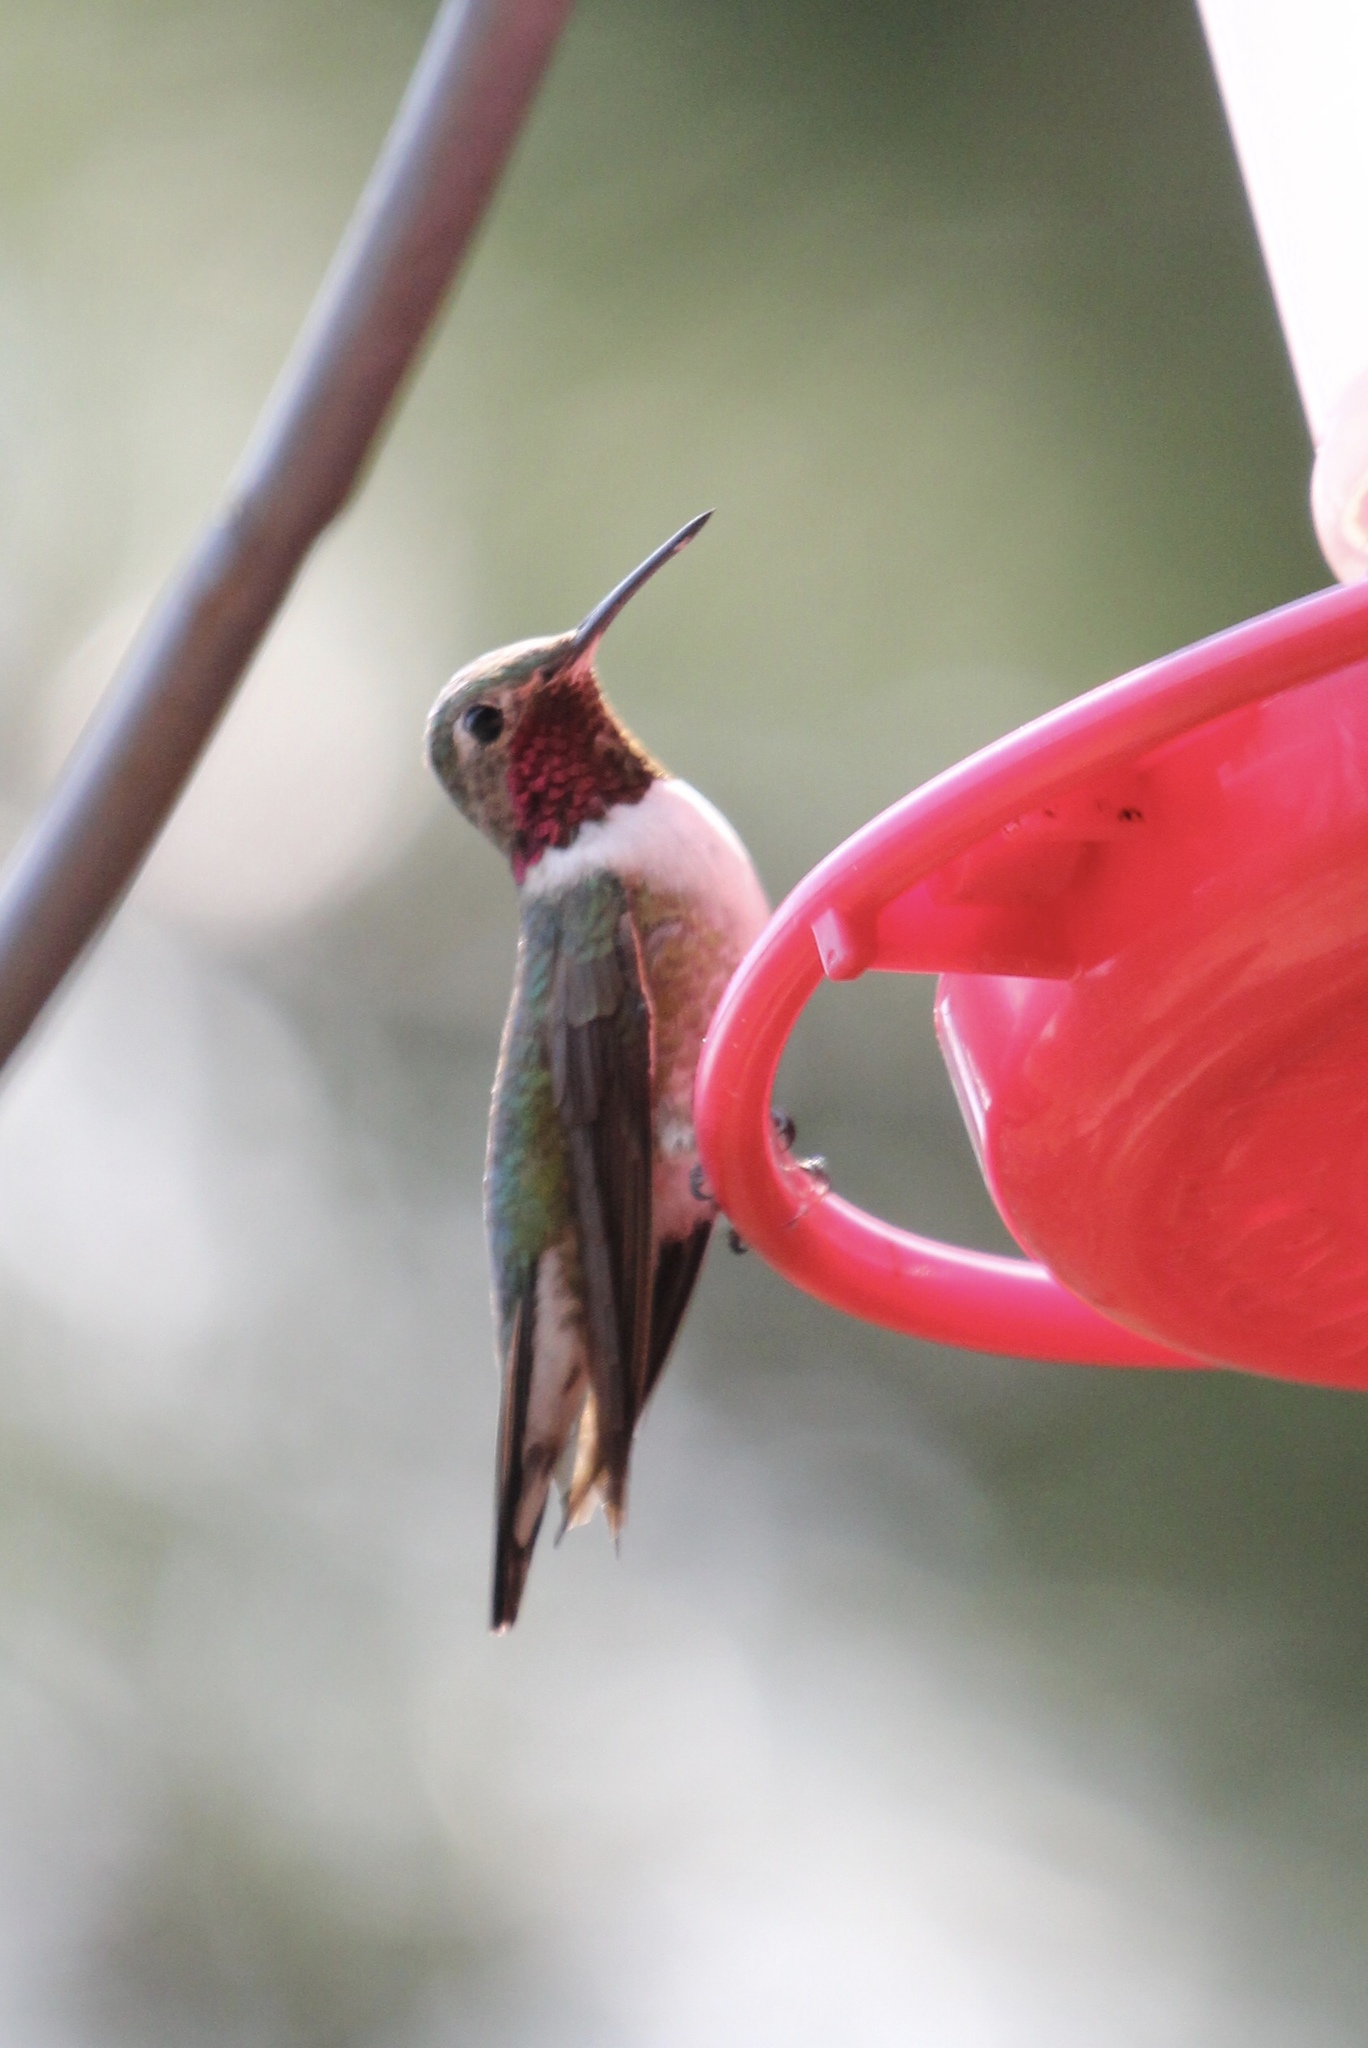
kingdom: Animalia
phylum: Chordata
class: Aves
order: Apodiformes
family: Trochilidae
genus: Selasphorus
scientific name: Selasphorus platycercus
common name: Broad-tailed hummingbird
